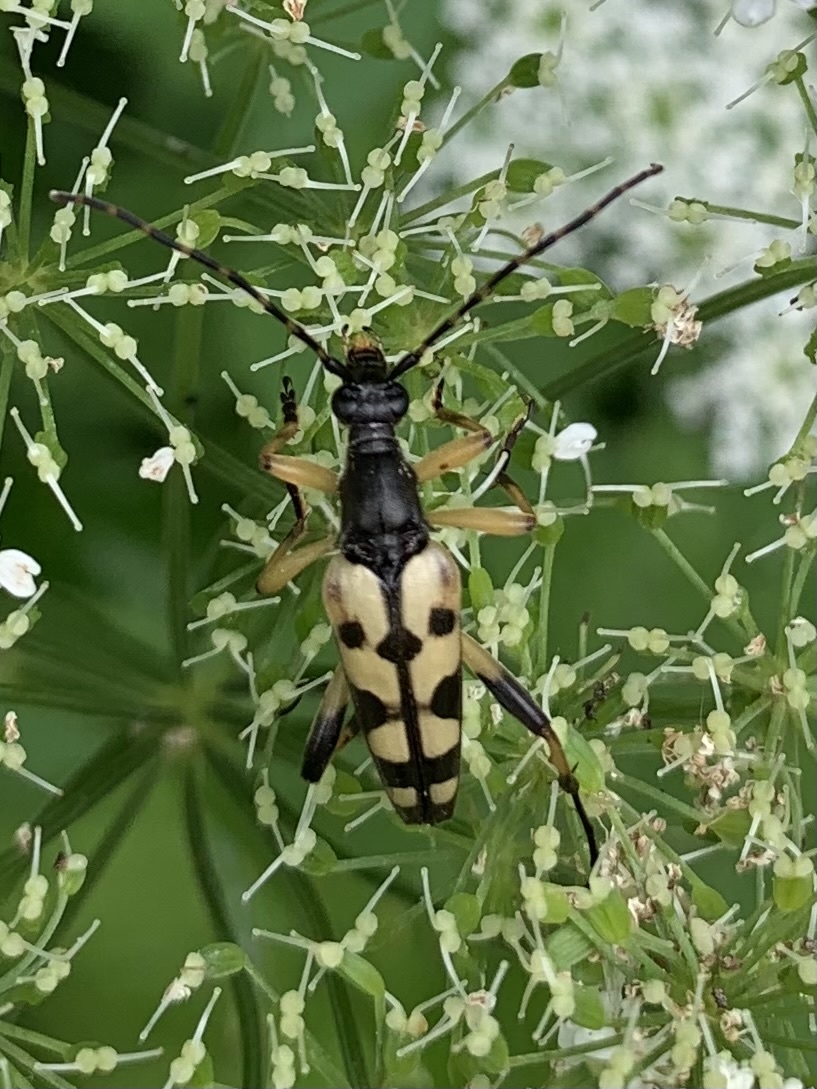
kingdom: Animalia
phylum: Arthropoda
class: Insecta
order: Coleoptera
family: Cerambycidae
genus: Rutpela
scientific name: Rutpela maculata
